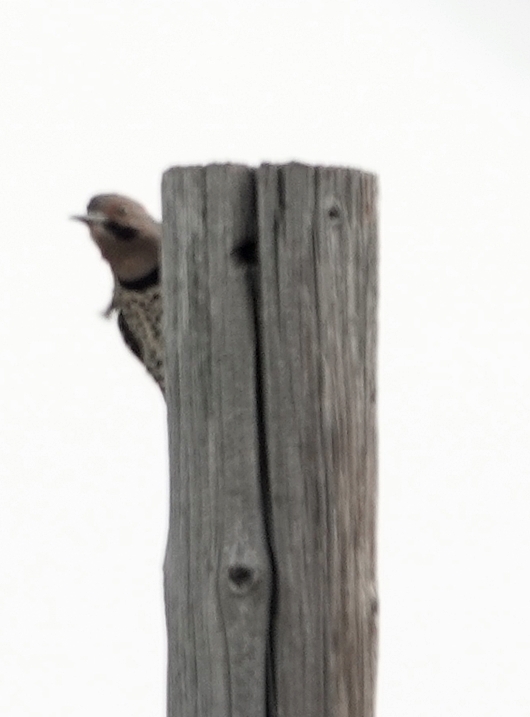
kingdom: Animalia
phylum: Chordata
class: Aves
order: Piciformes
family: Picidae
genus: Colaptes
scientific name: Colaptes auratus
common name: Northern flicker
